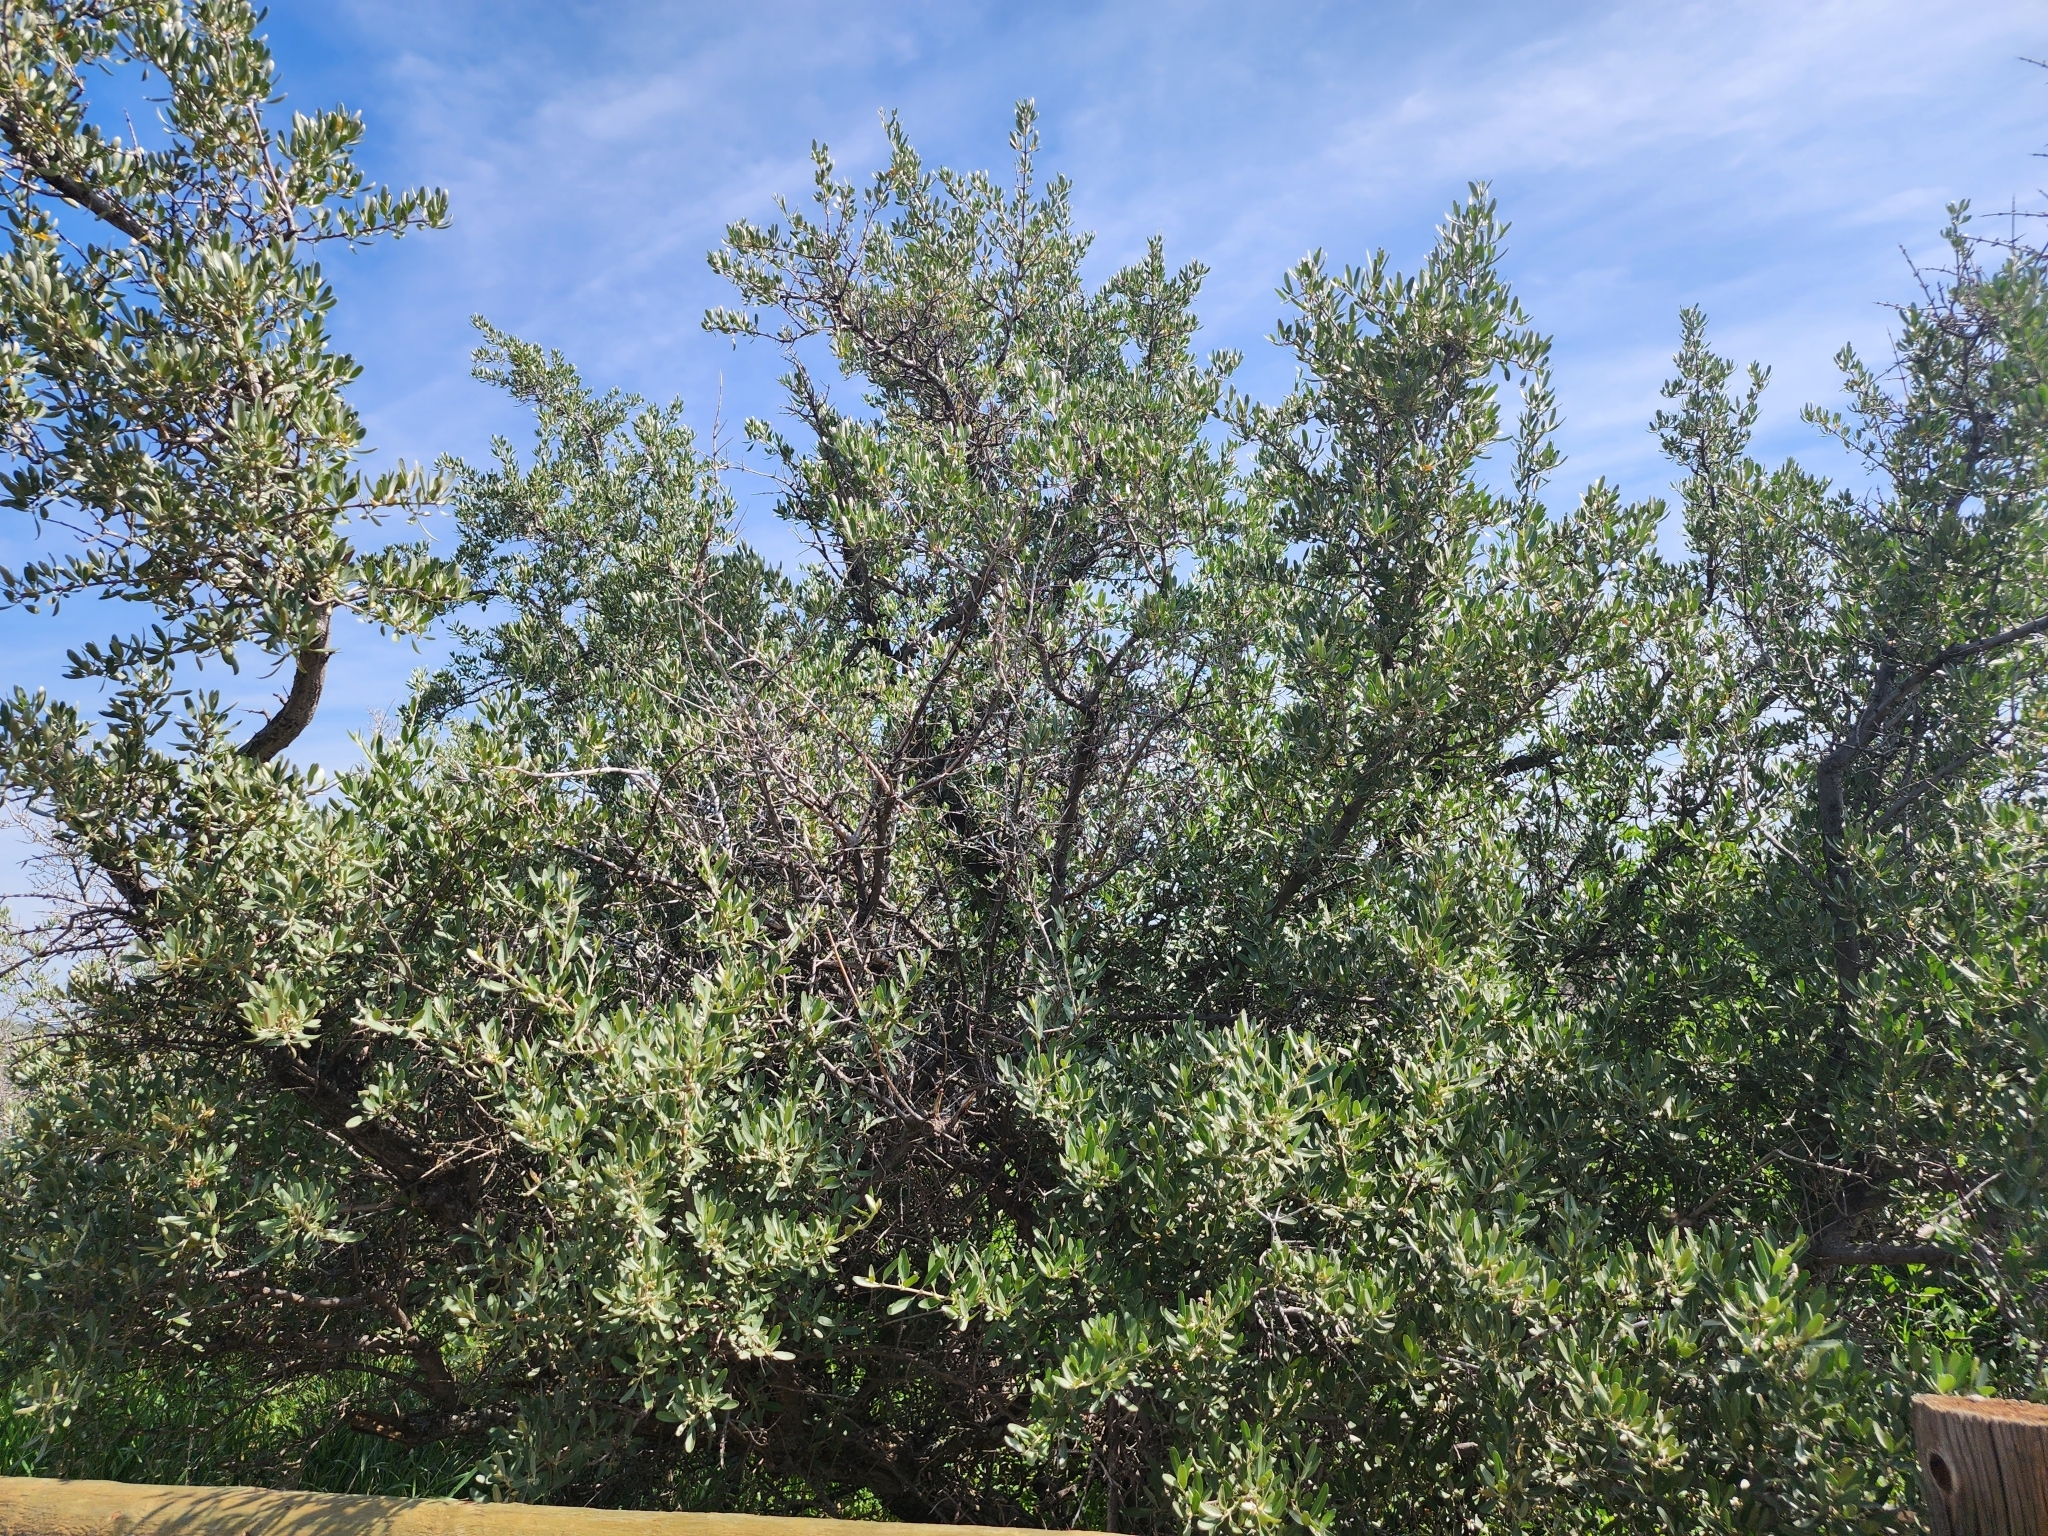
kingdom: Plantae
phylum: Tracheophyta
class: Magnoliopsida
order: Rosales
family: Elaeagnaceae
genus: Shepherdia
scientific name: Shepherdia argentea
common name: Silver buffaloberry
